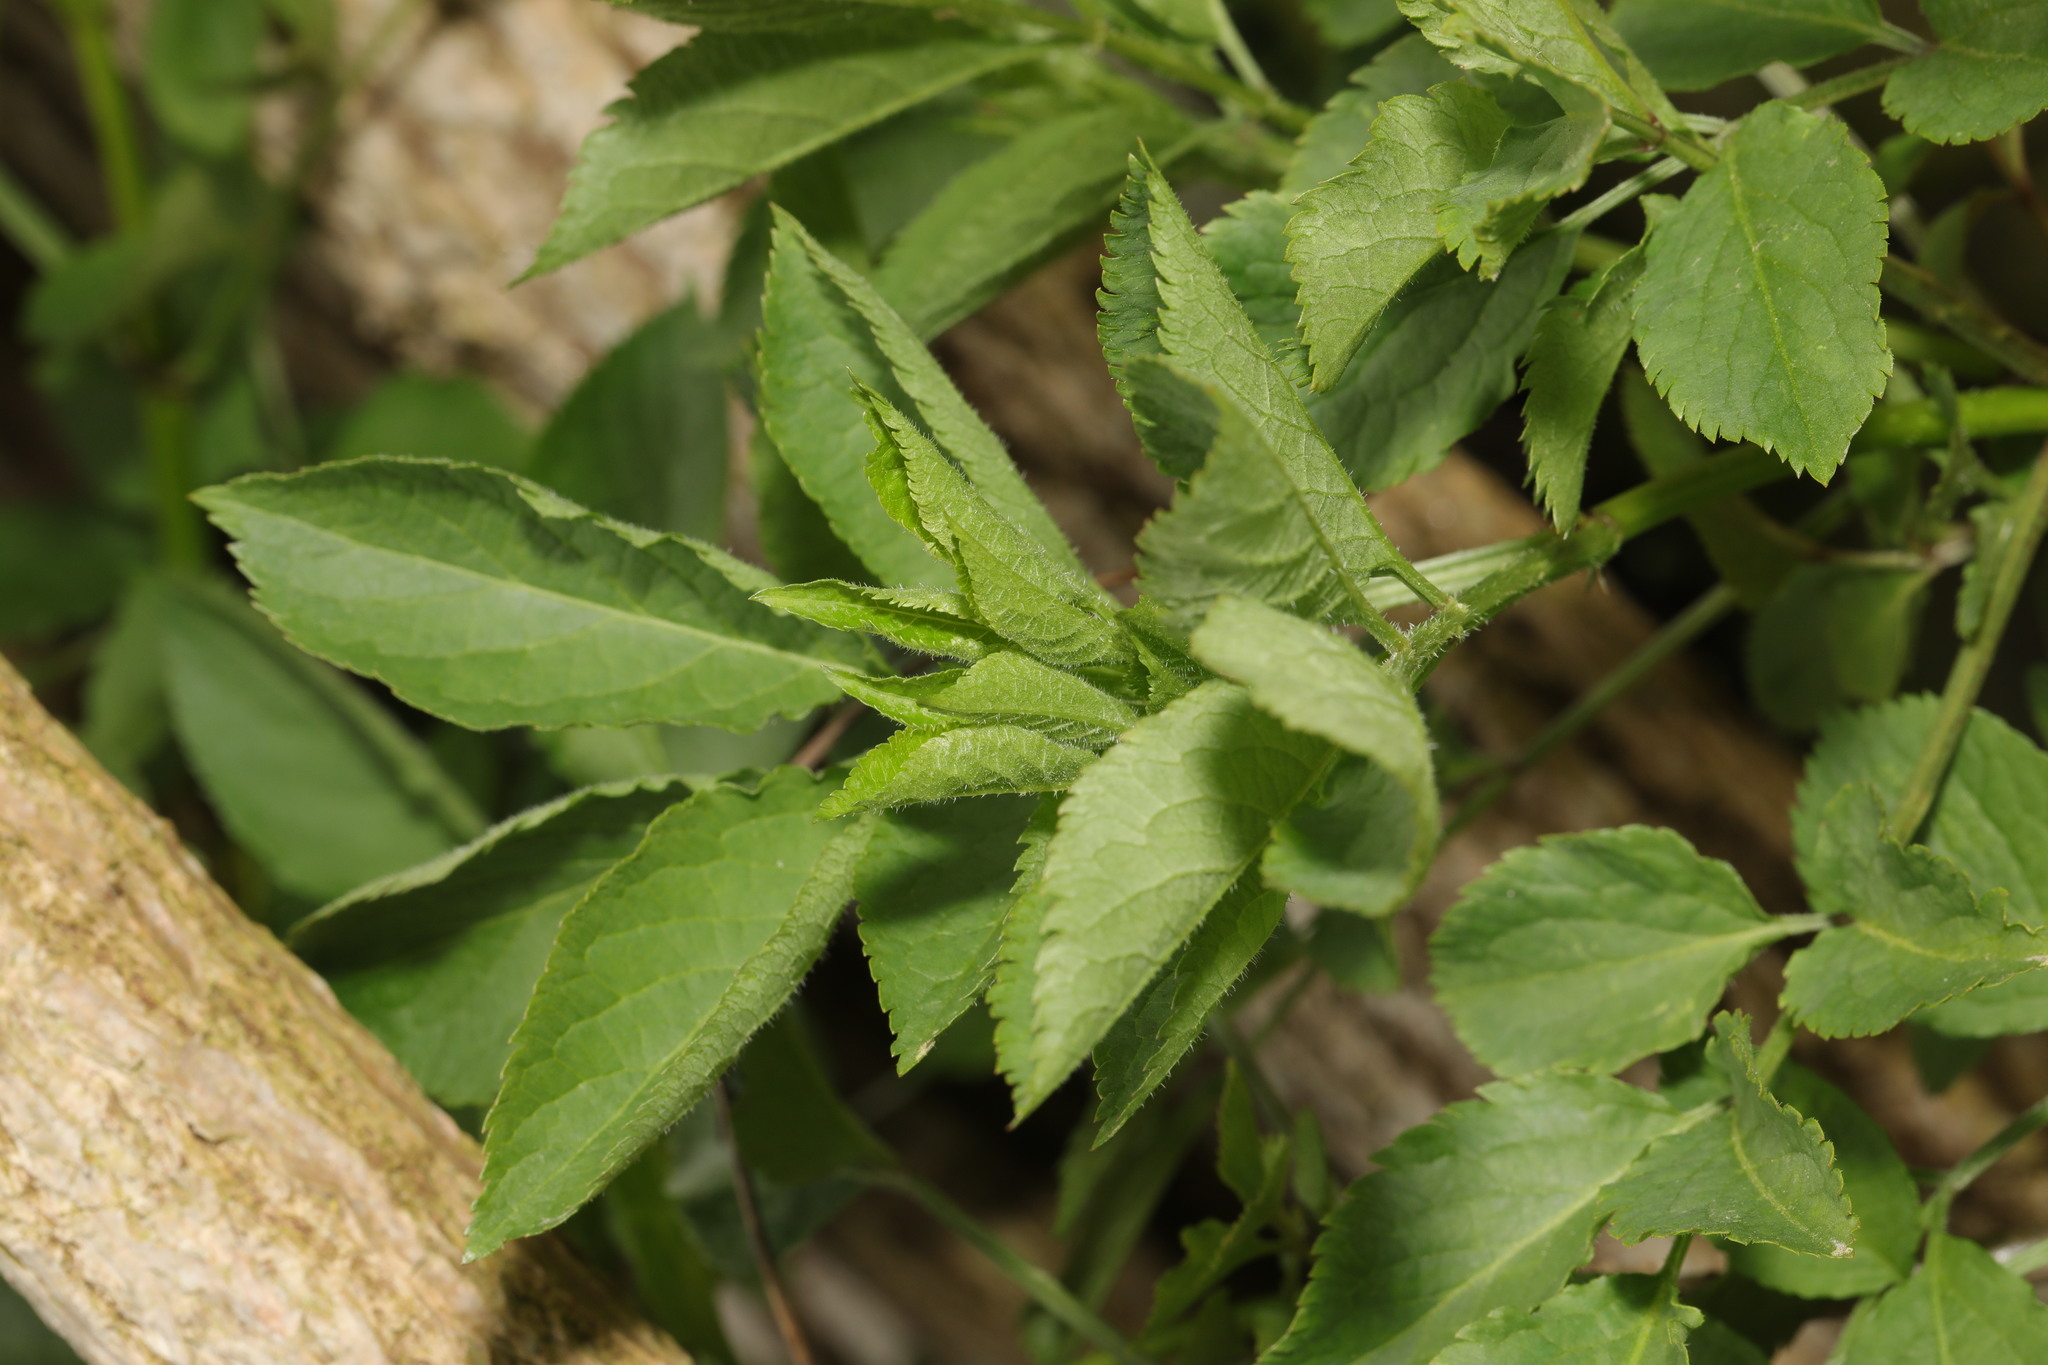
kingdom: Plantae
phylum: Tracheophyta
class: Magnoliopsida
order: Dipsacales
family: Viburnaceae
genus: Sambucus
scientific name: Sambucus nigra
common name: Elder
